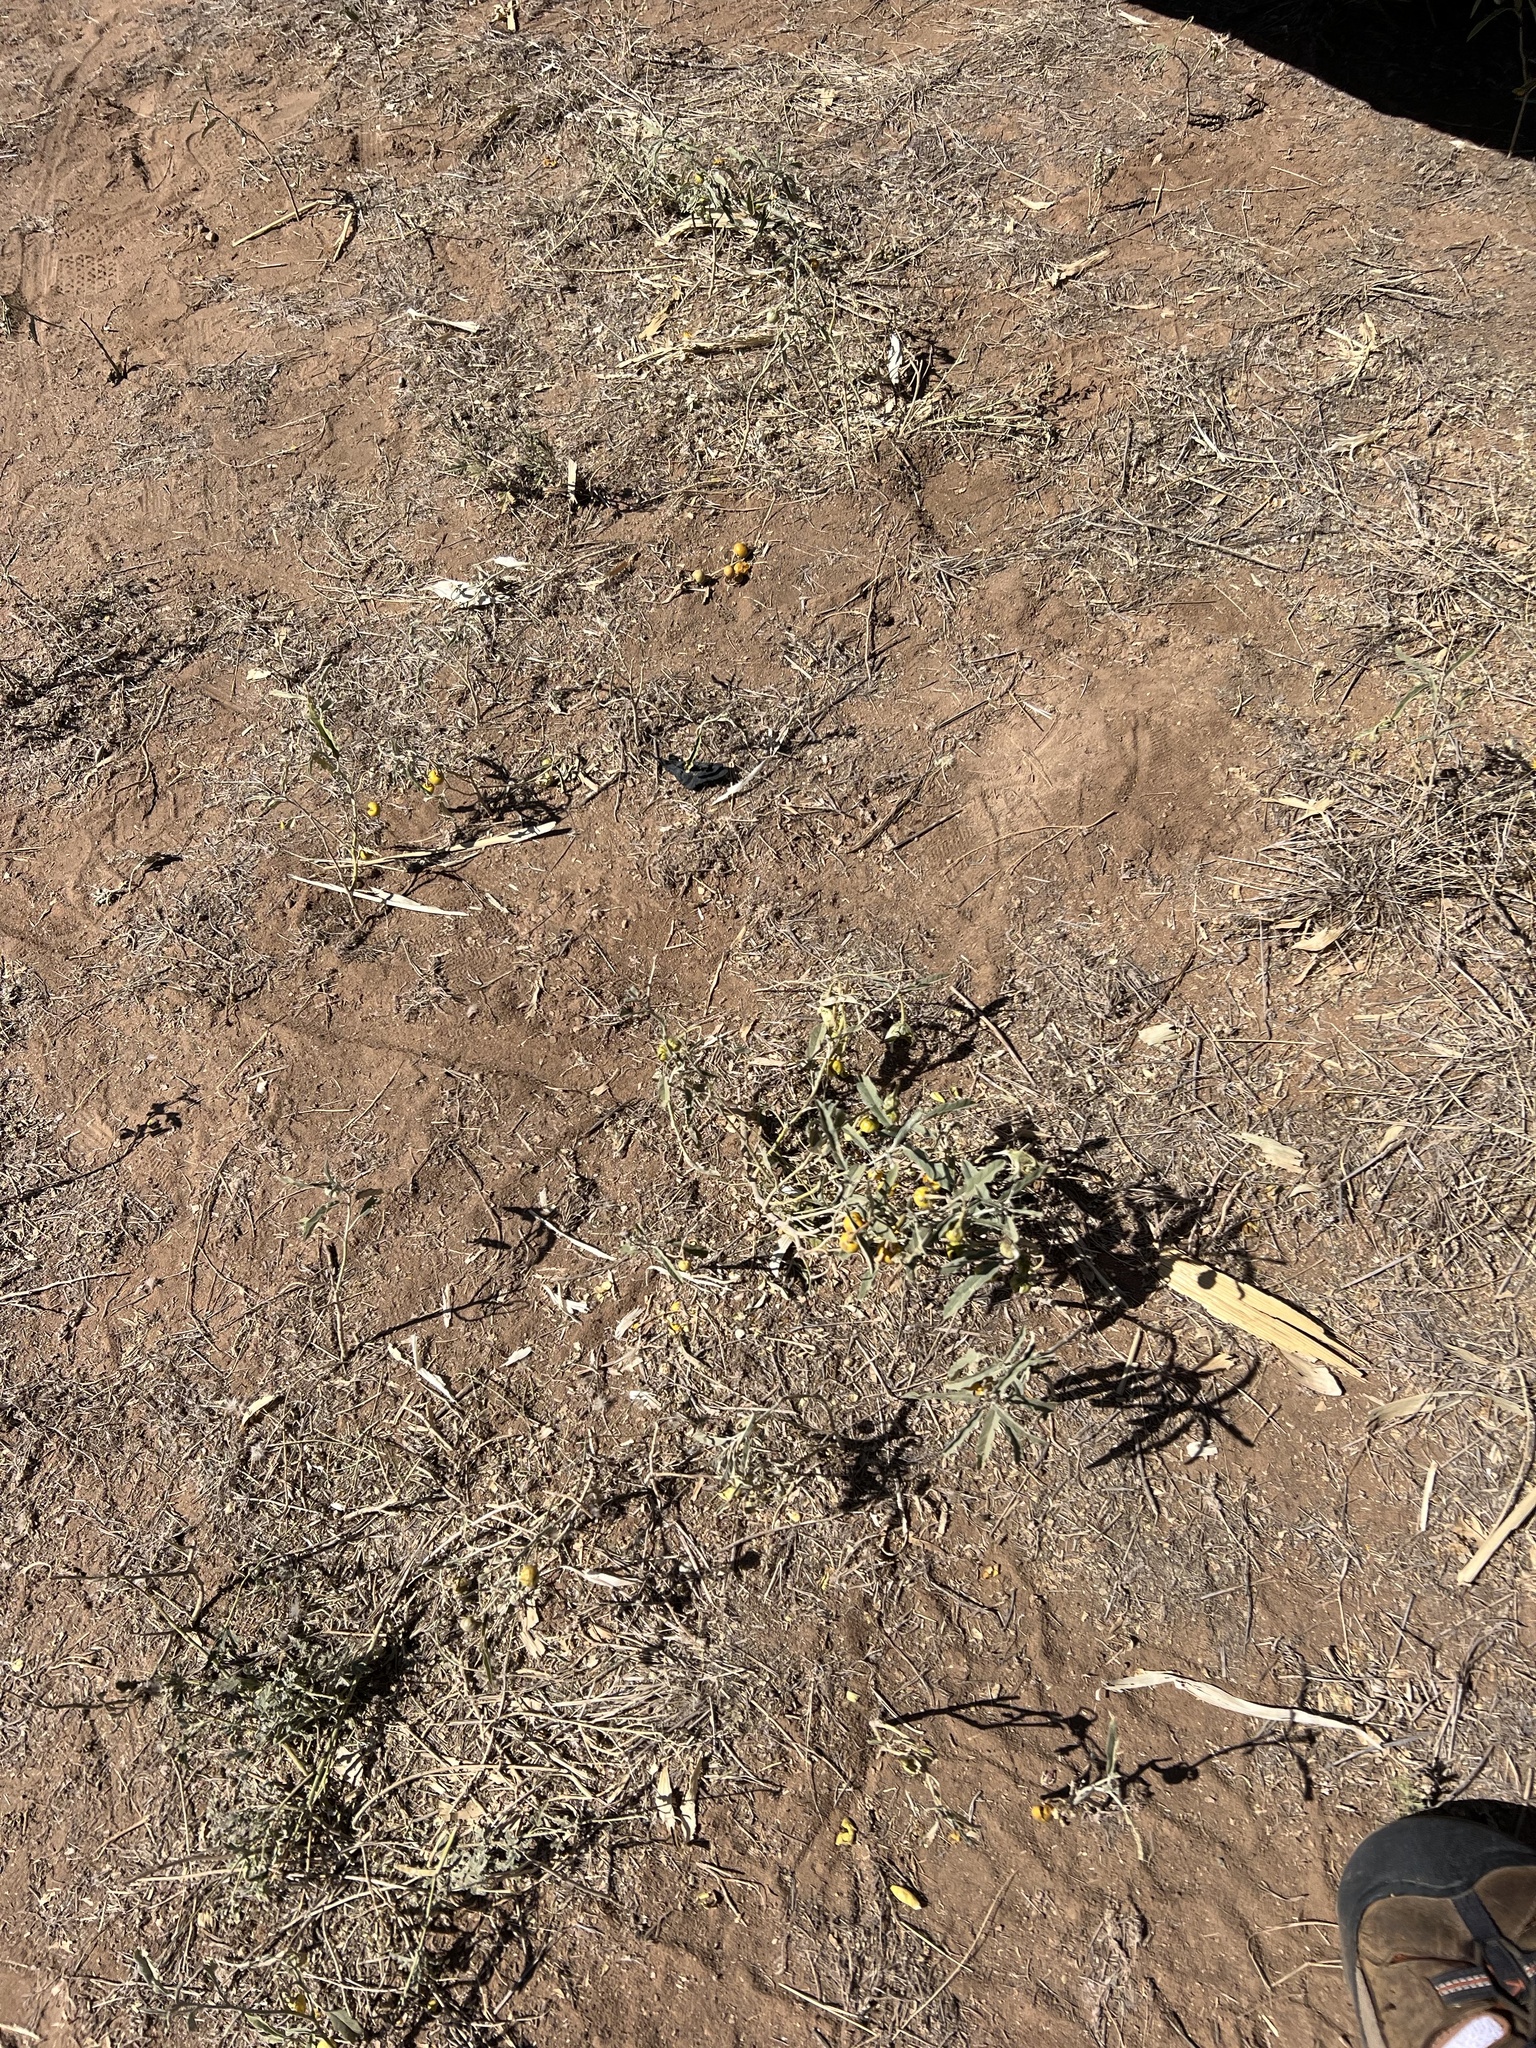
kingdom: Plantae
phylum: Tracheophyta
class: Magnoliopsida
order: Solanales
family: Solanaceae
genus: Solanum
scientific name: Solanum elaeagnifolium
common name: Silverleaf nightshade
